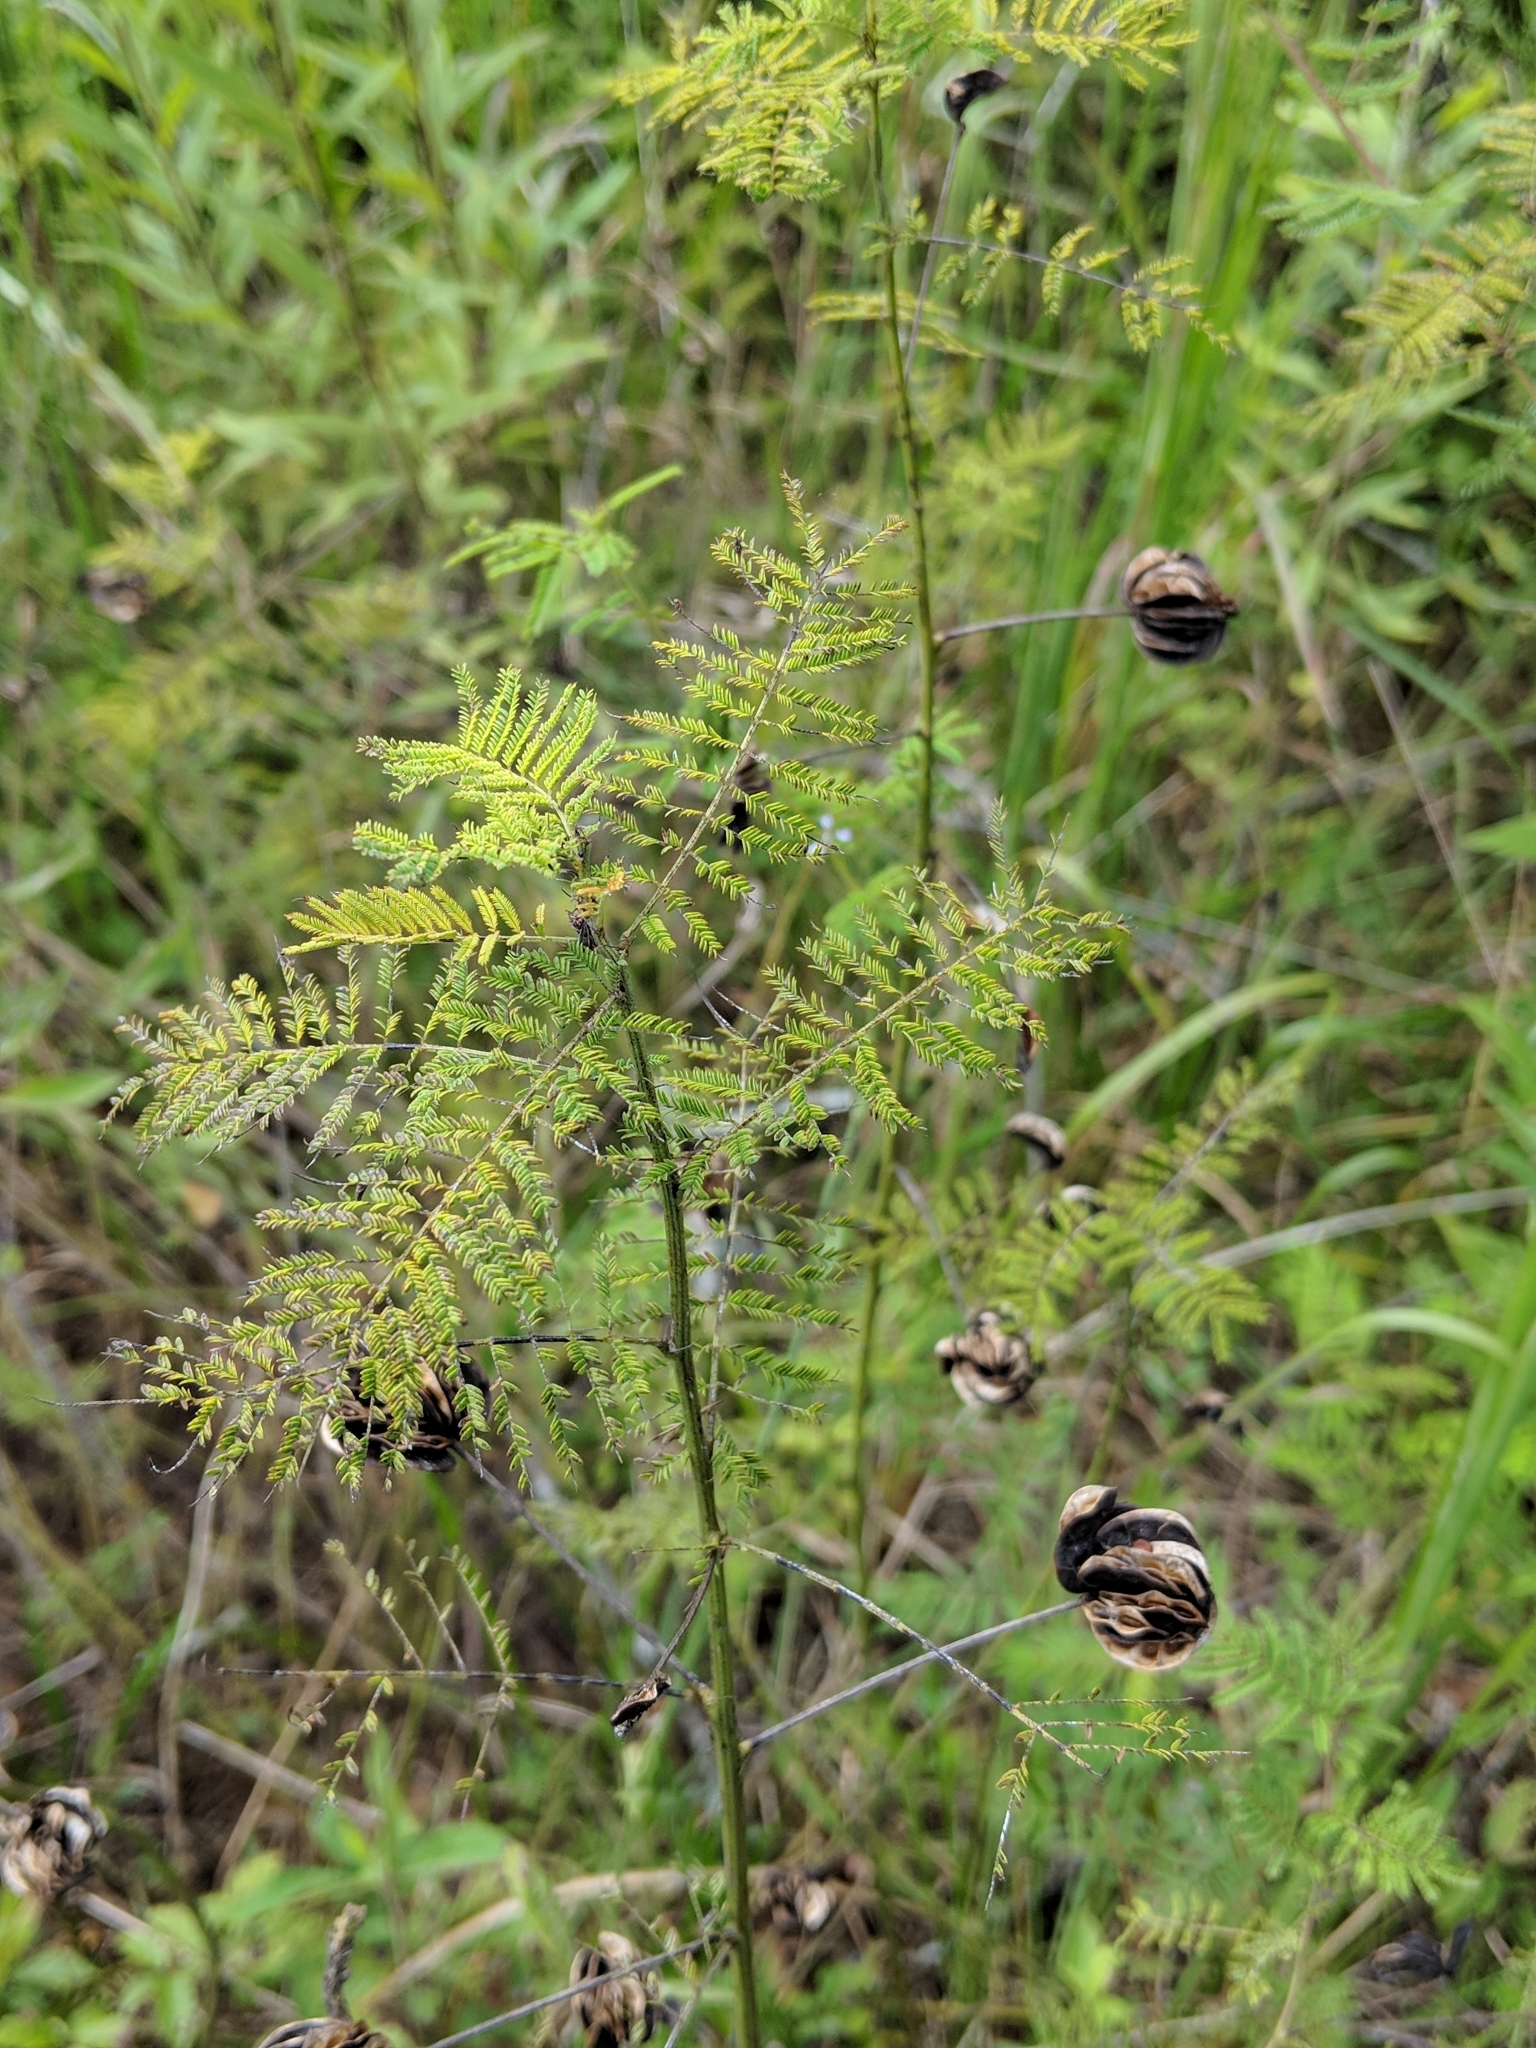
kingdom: Plantae
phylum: Tracheophyta
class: Magnoliopsida
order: Fabales
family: Fabaceae
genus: Desmanthus
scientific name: Desmanthus illinoensis
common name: Illinois bundle-flower
